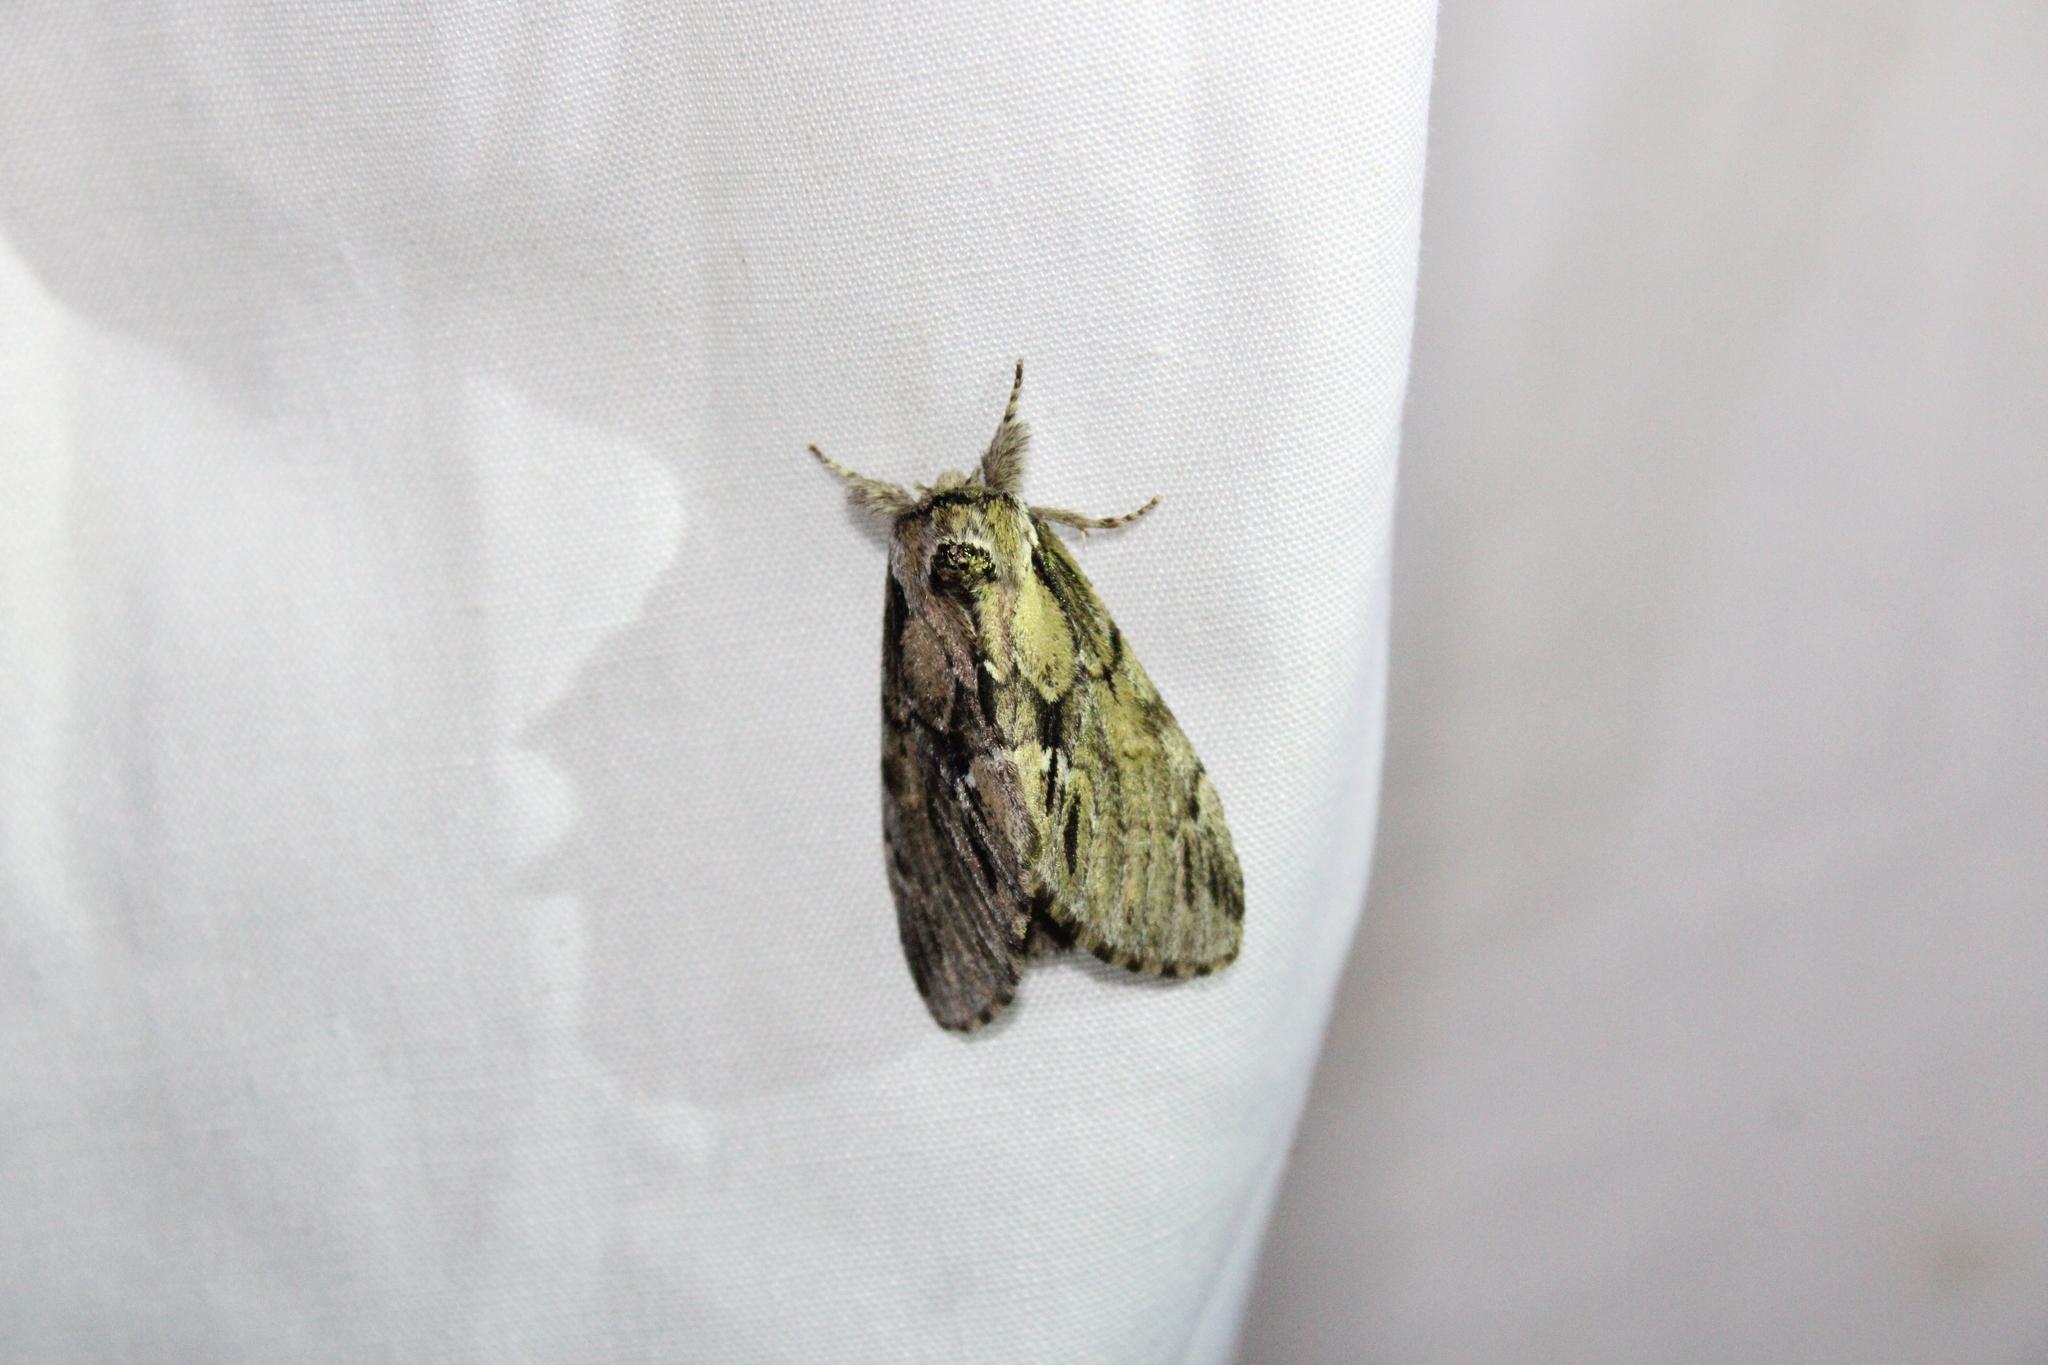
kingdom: Animalia
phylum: Arthropoda
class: Insecta
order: Lepidoptera
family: Notodontidae
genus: Paraeschra
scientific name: Paraeschra georgica
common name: Georgian prominent
